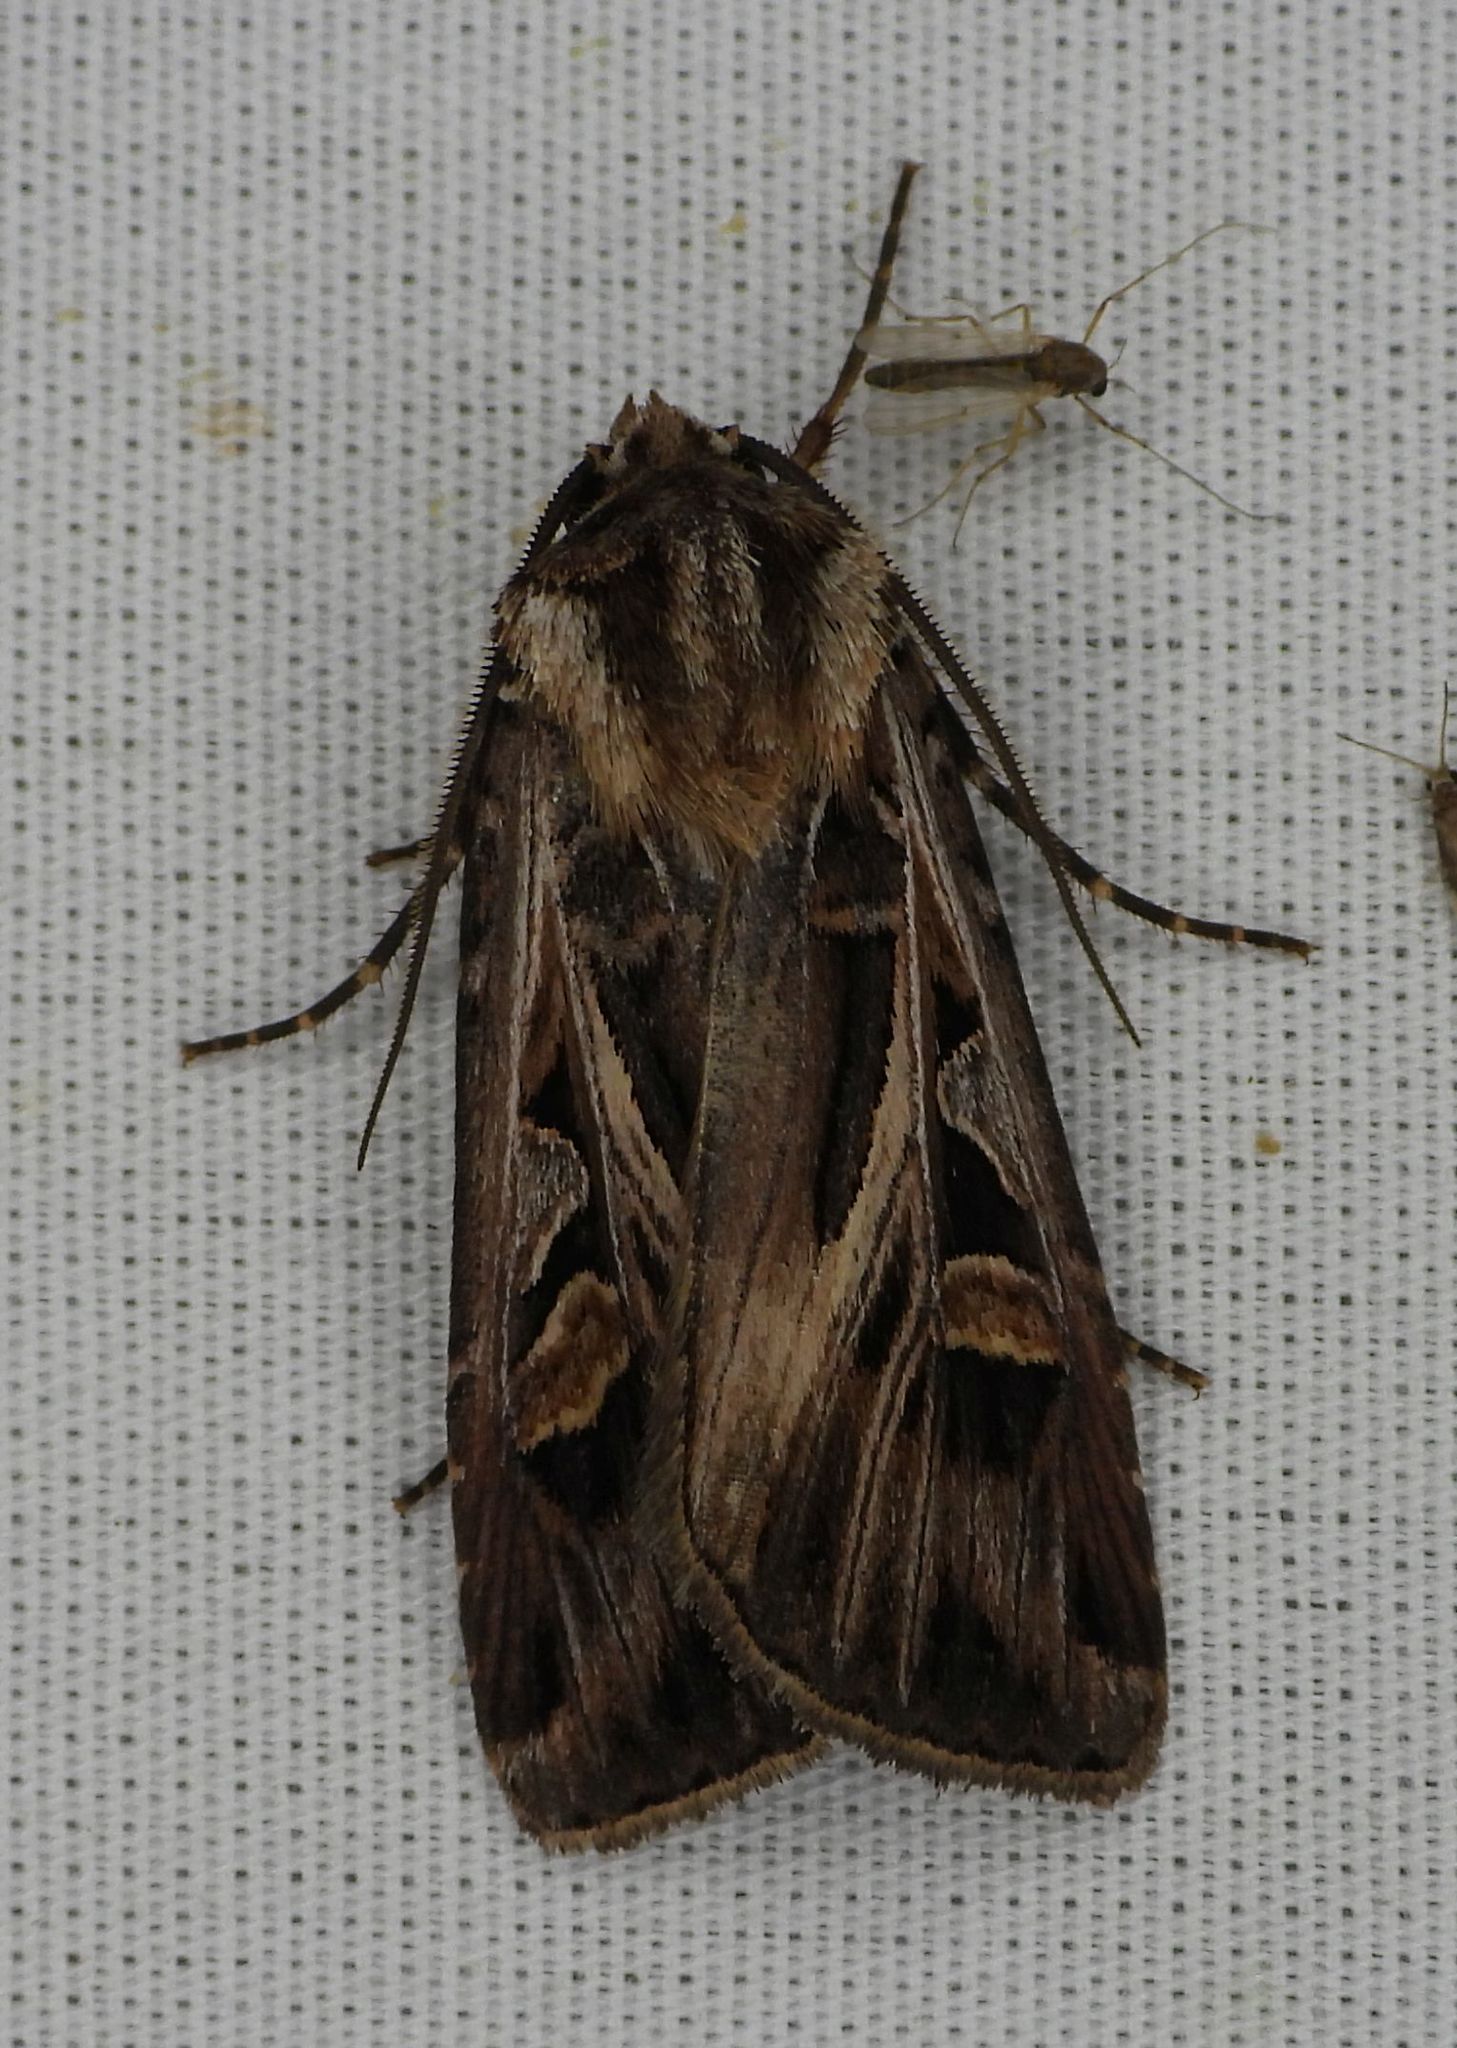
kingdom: Animalia
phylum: Arthropoda
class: Insecta
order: Lepidoptera
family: Noctuidae
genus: Feltia
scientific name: Feltia jaculifera
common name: Dingy cutworm moth
